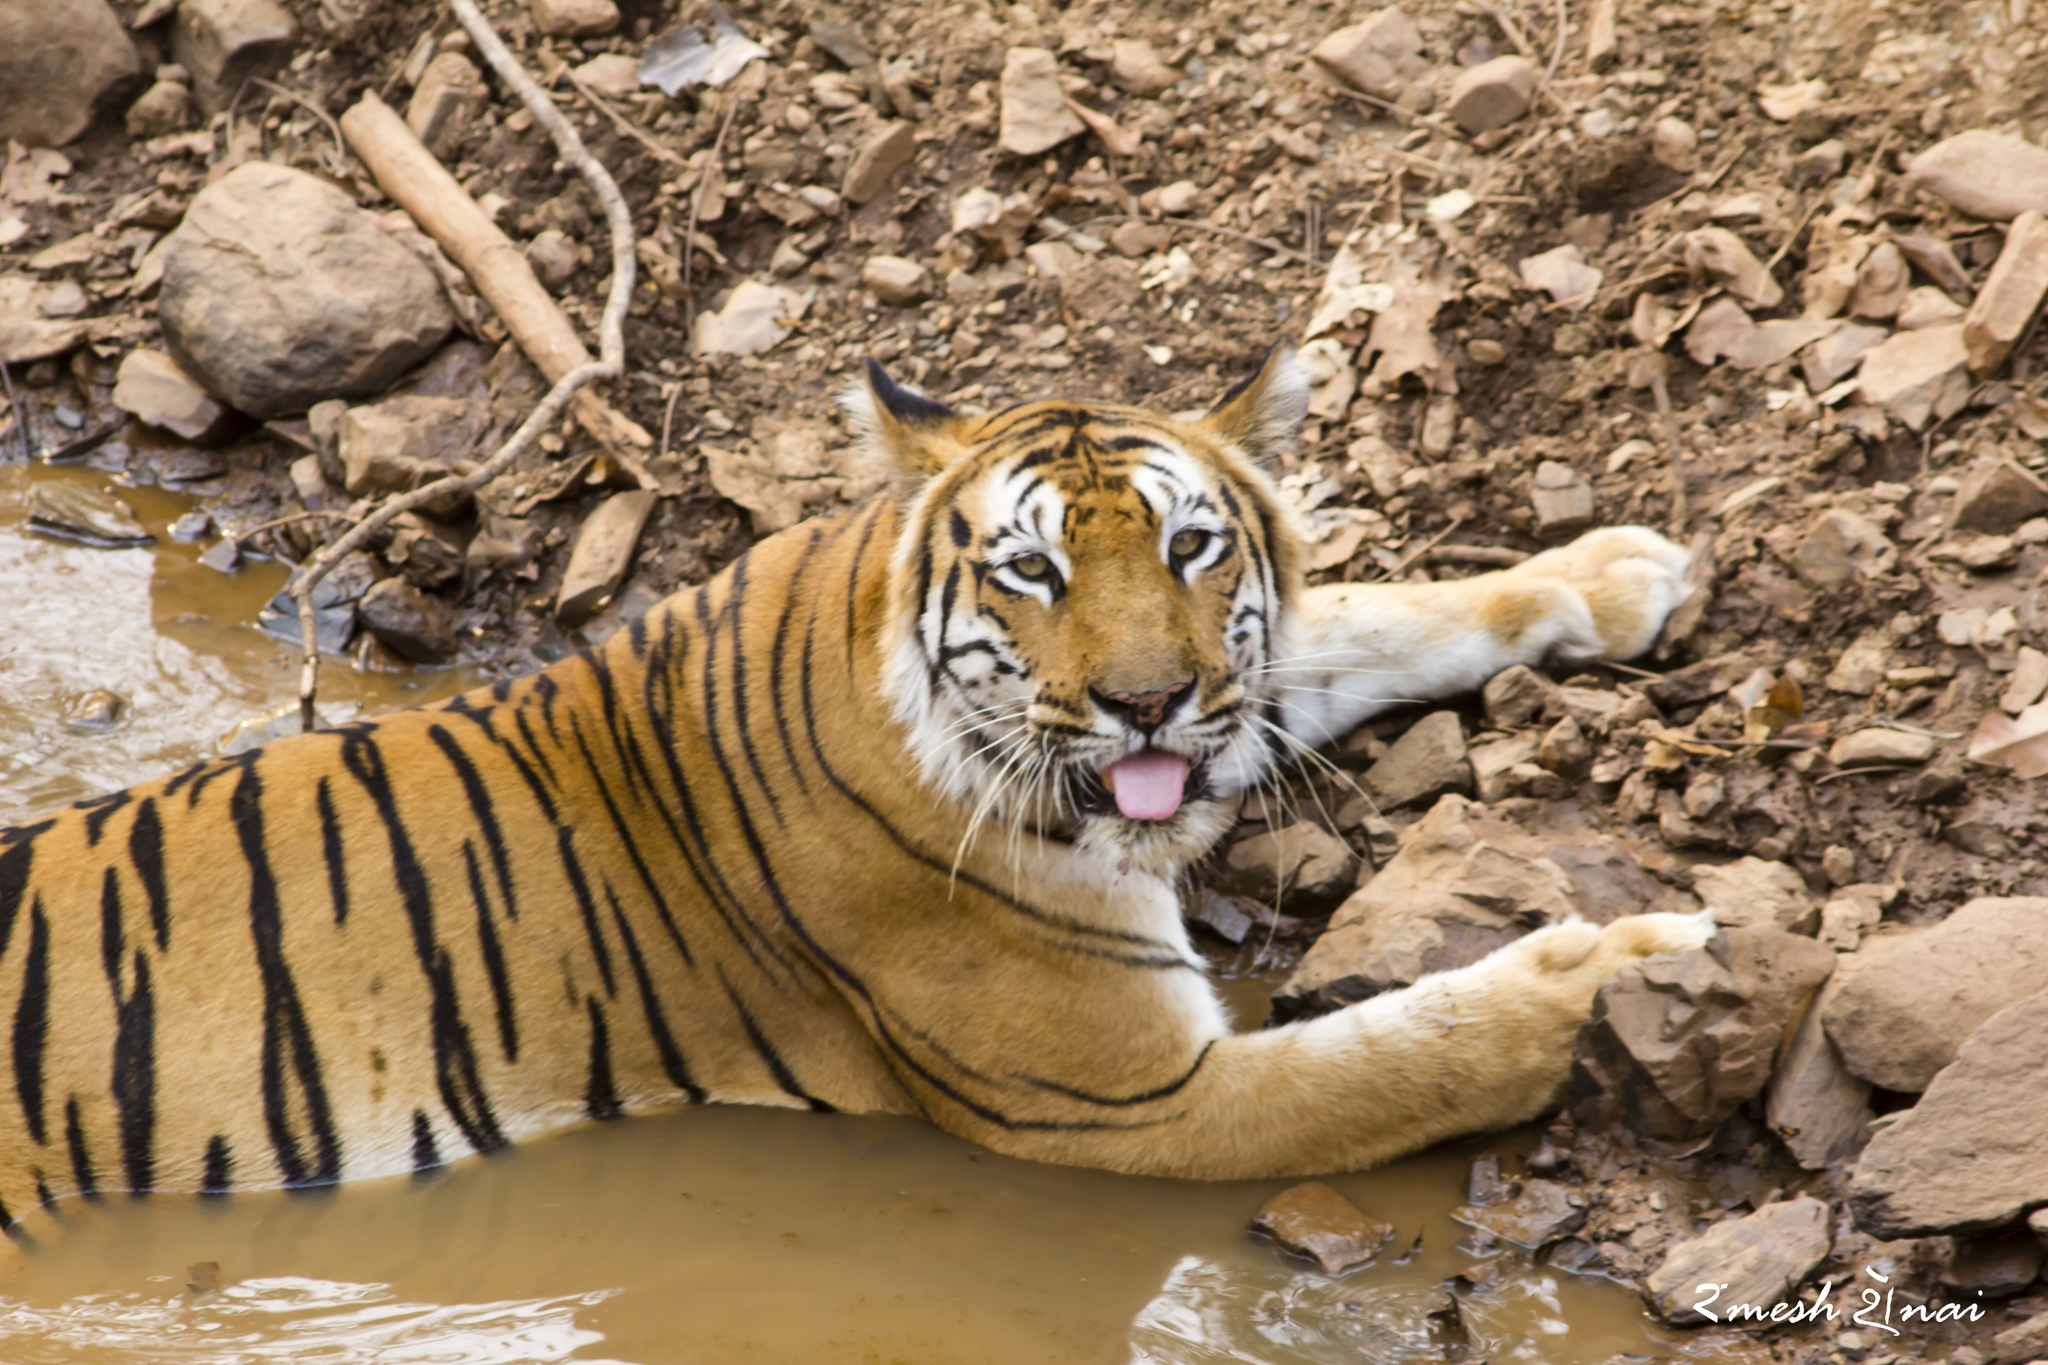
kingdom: Animalia
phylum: Chordata
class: Mammalia
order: Carnivora
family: Felidae
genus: Panthera
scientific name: Panthera tigris
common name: Tiger
